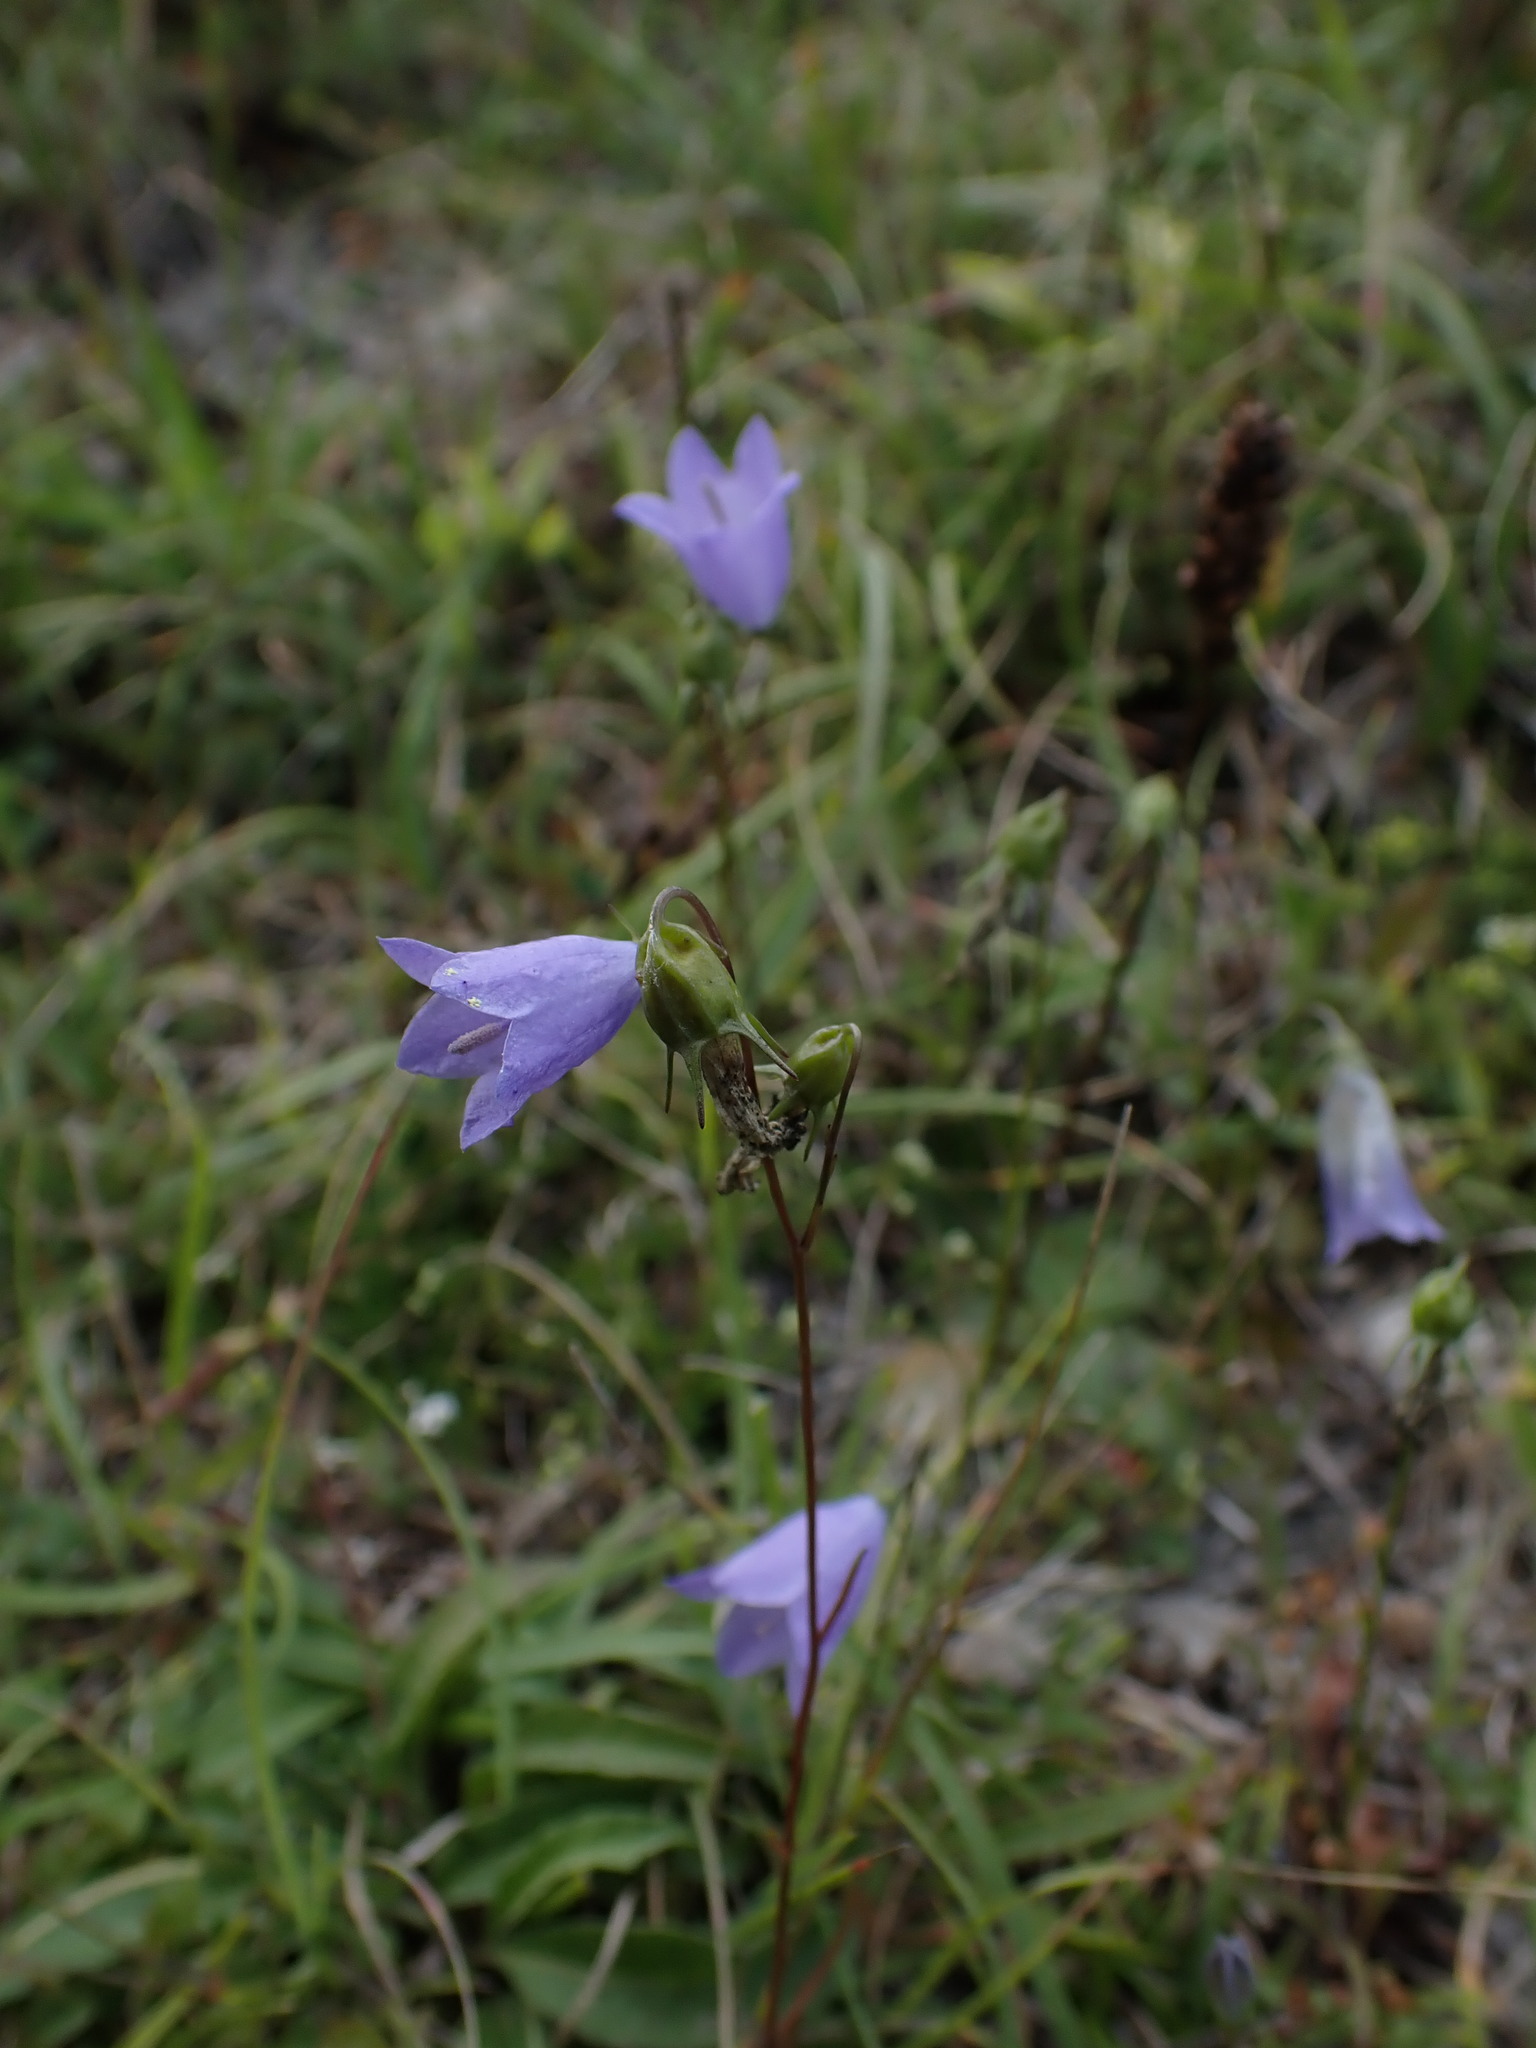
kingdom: Plantae
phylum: Tracheophyta
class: Magnoliopsida
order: Asterales
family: Campanulaceae
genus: Campanula
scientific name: Campanula rotundifolia
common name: Harebell
